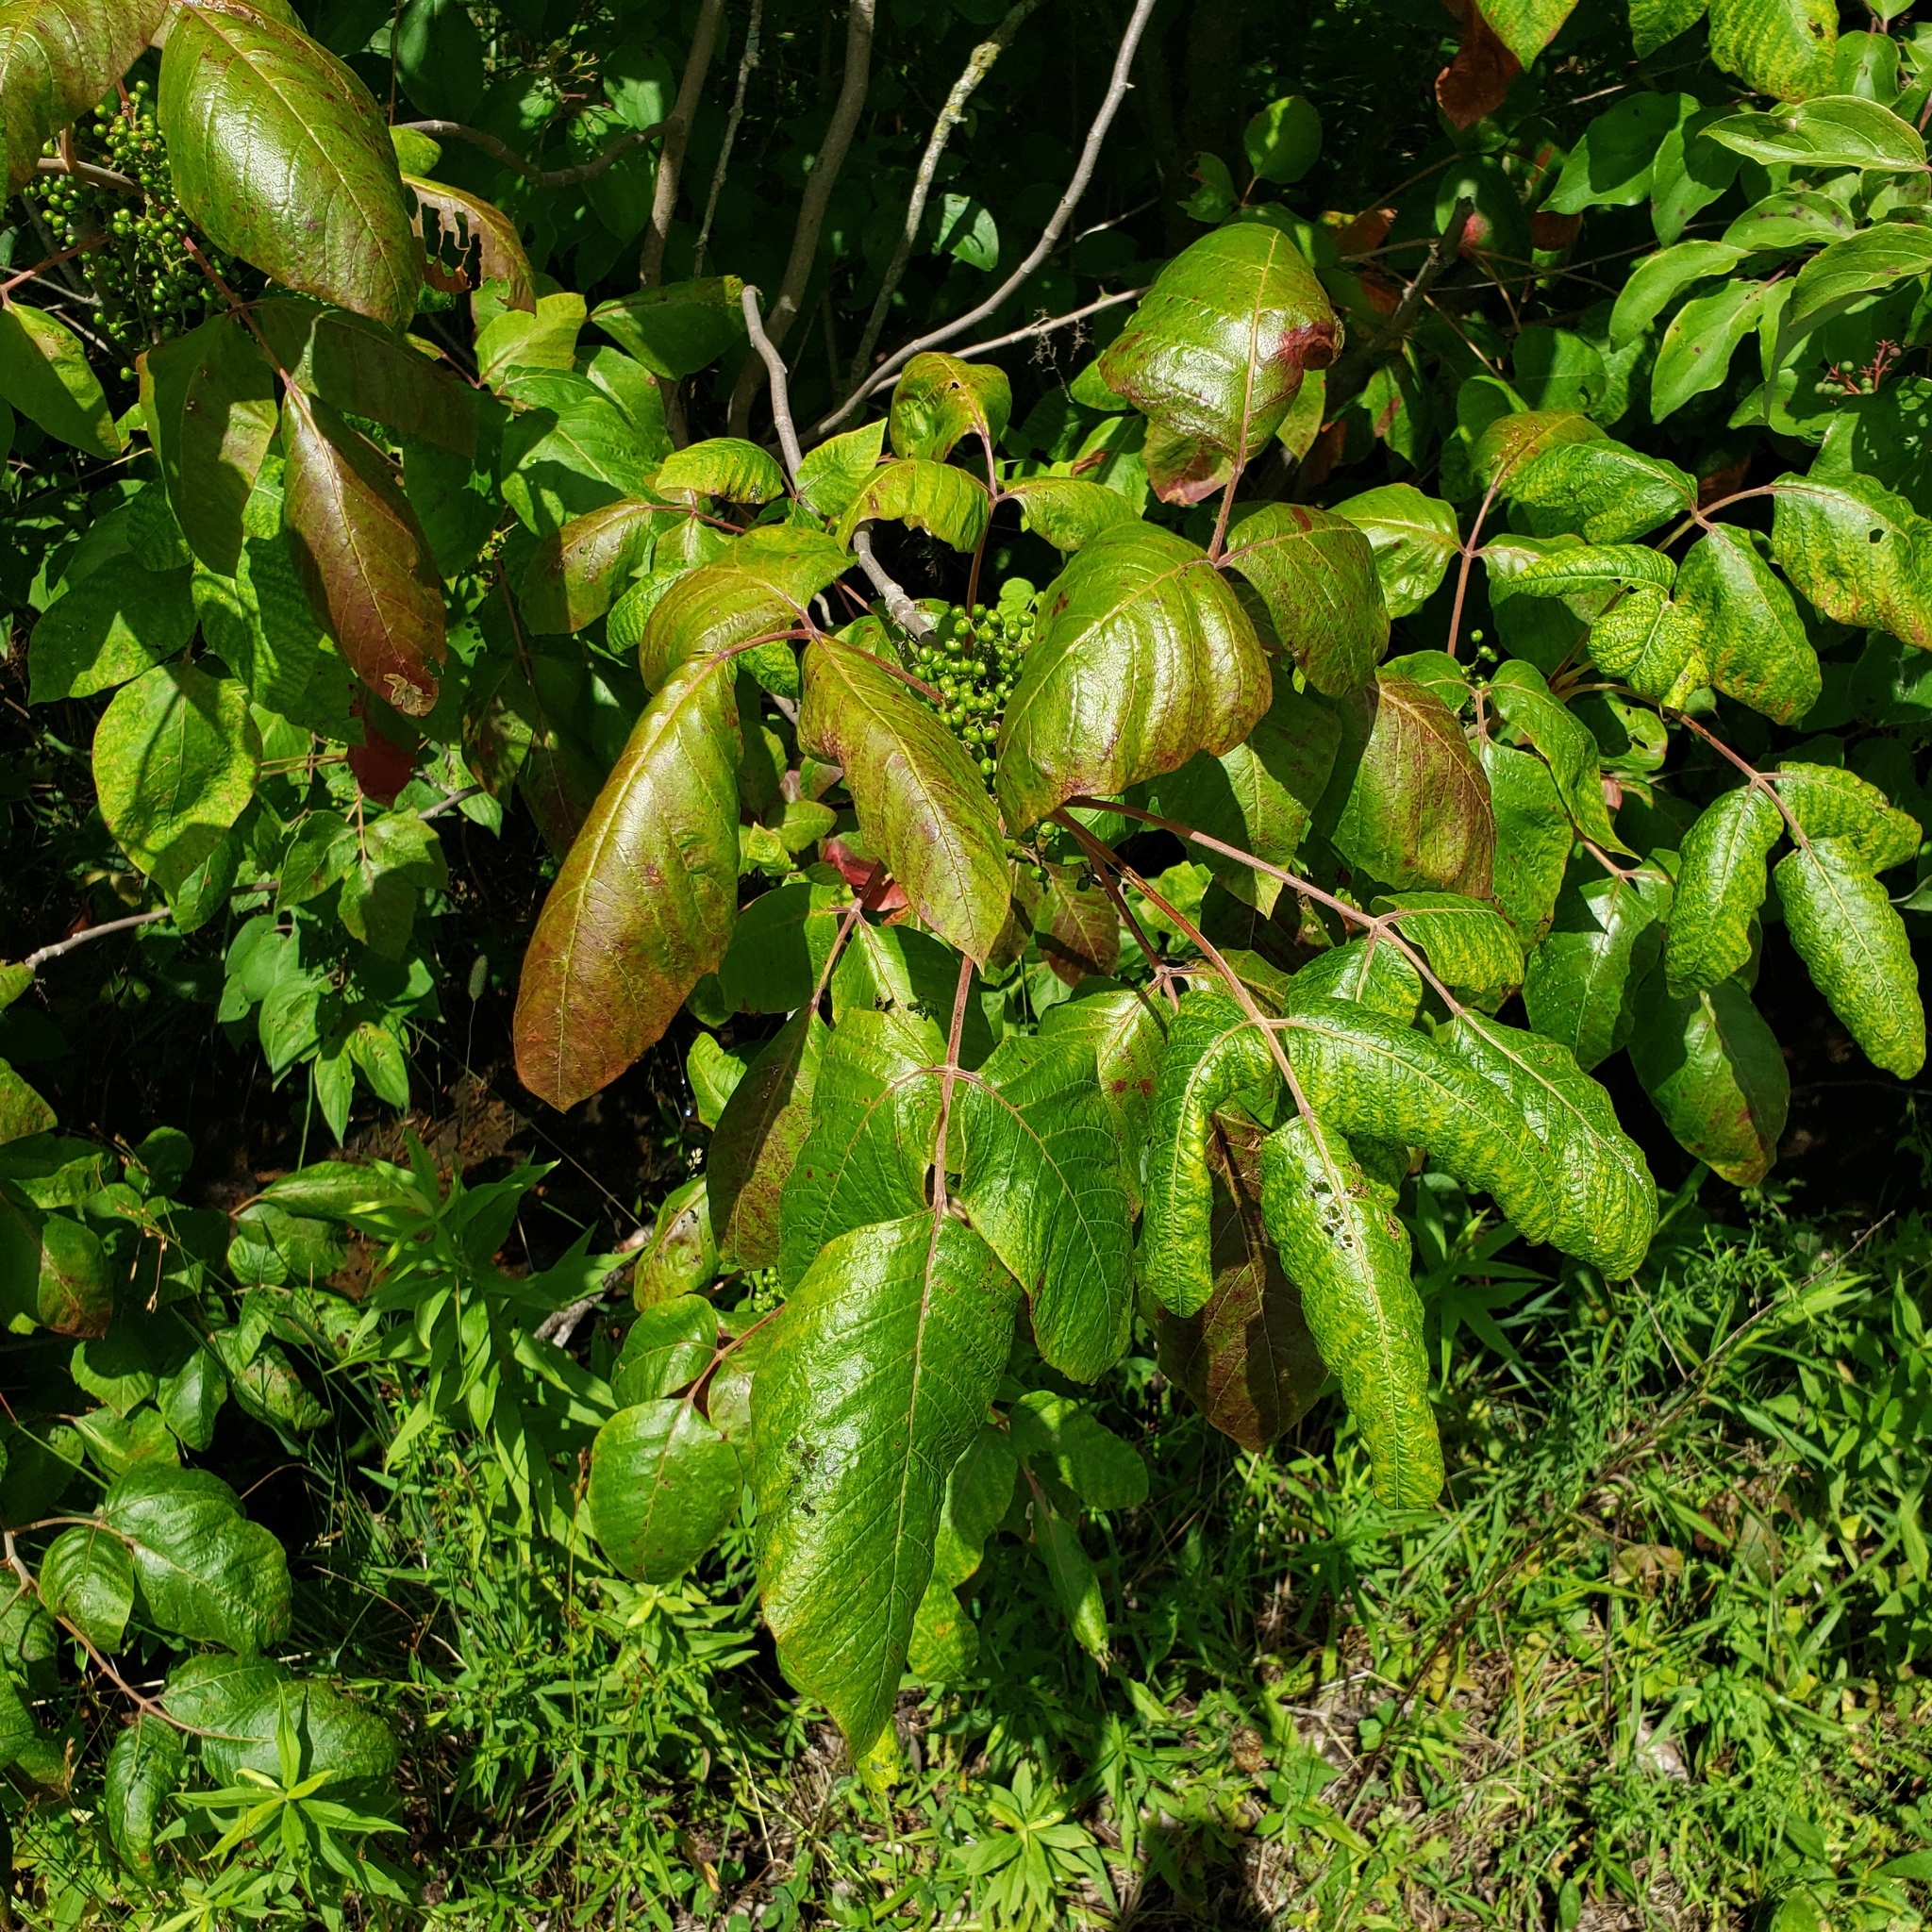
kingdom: Plantae
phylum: Tracheophyta
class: Magnoliopsida
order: Sapindales
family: Anacardiaceae
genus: Toxicodendron
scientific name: Toxicodendron radicans
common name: Poison ivy
